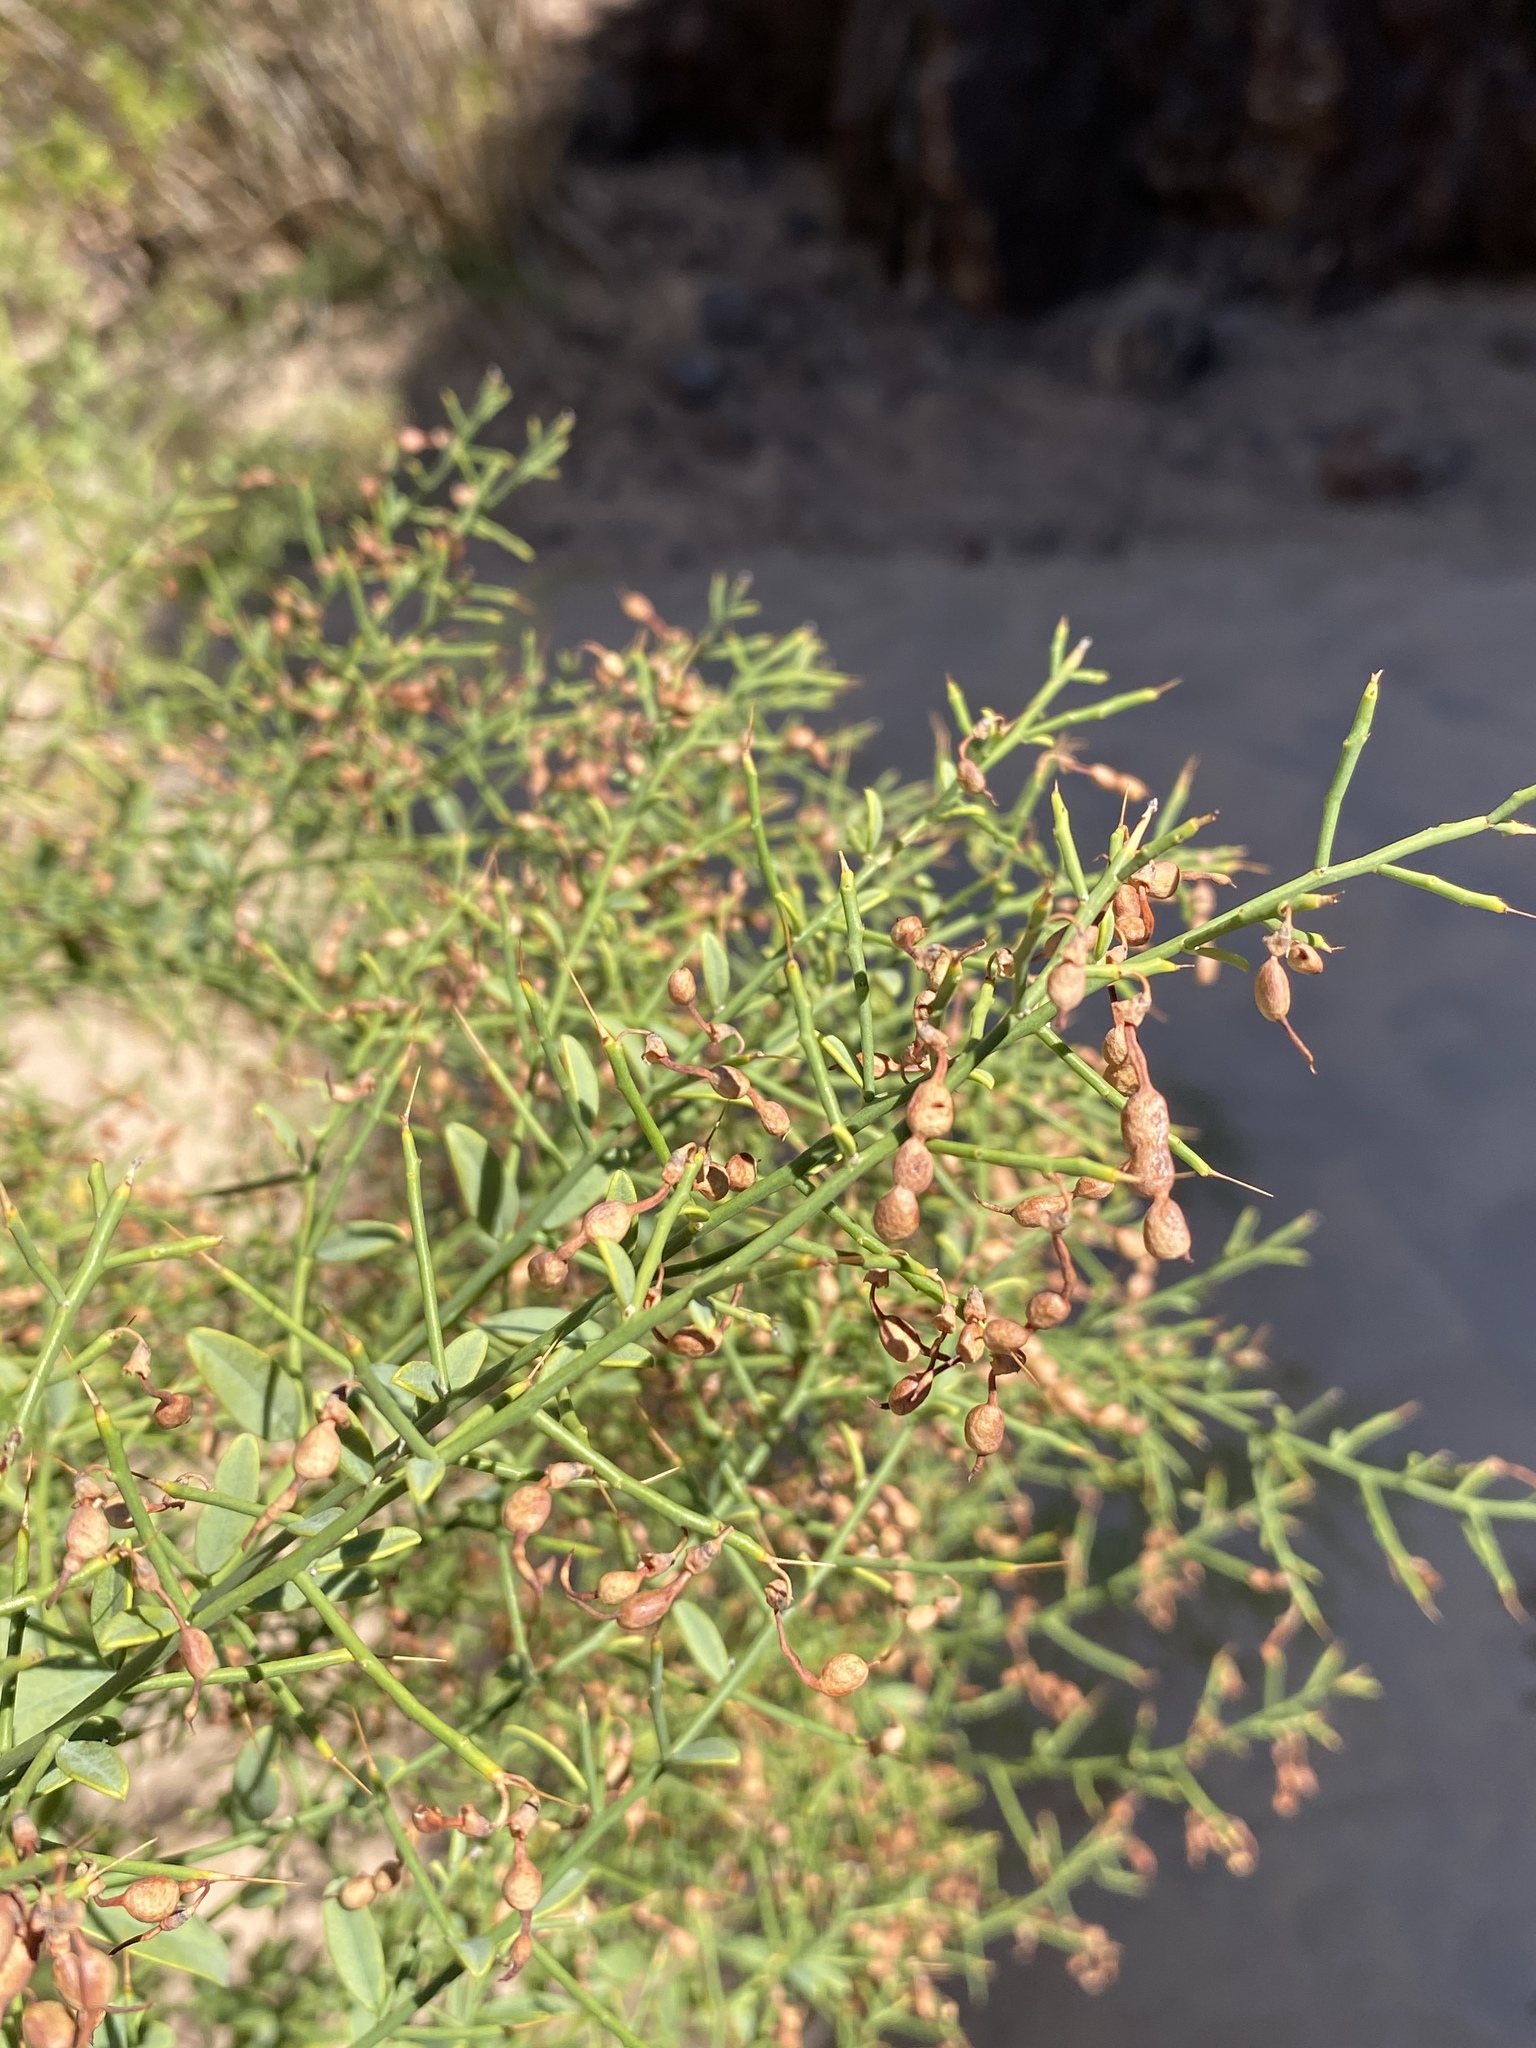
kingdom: Plantae
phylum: Tracheophyta
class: Magnoliopsida
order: Fabales
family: Fabaceae
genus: Alhagi
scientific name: Alhagi maurorum
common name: Camelthorn
